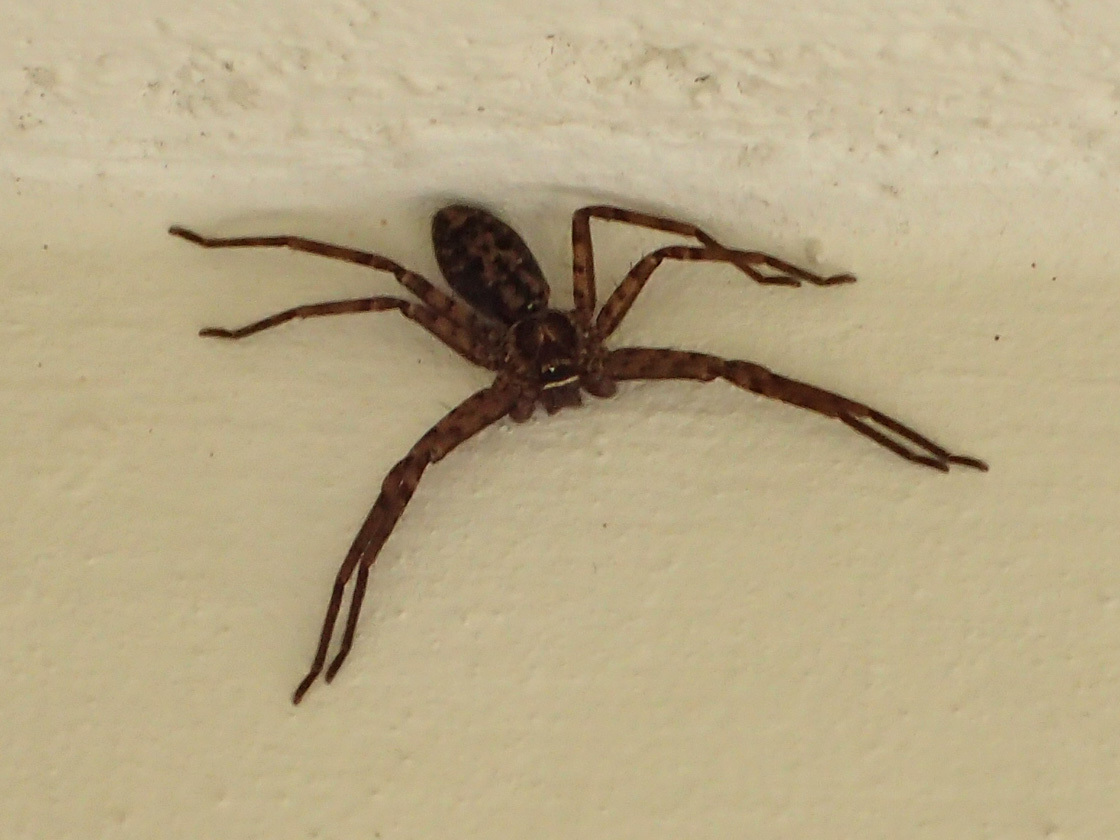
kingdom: Animalia
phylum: Arthropoda
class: Arachnida
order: Araneae
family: Sparassidae
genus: Heteropoda
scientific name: Heteropoda venatoria
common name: Huntsman spider
